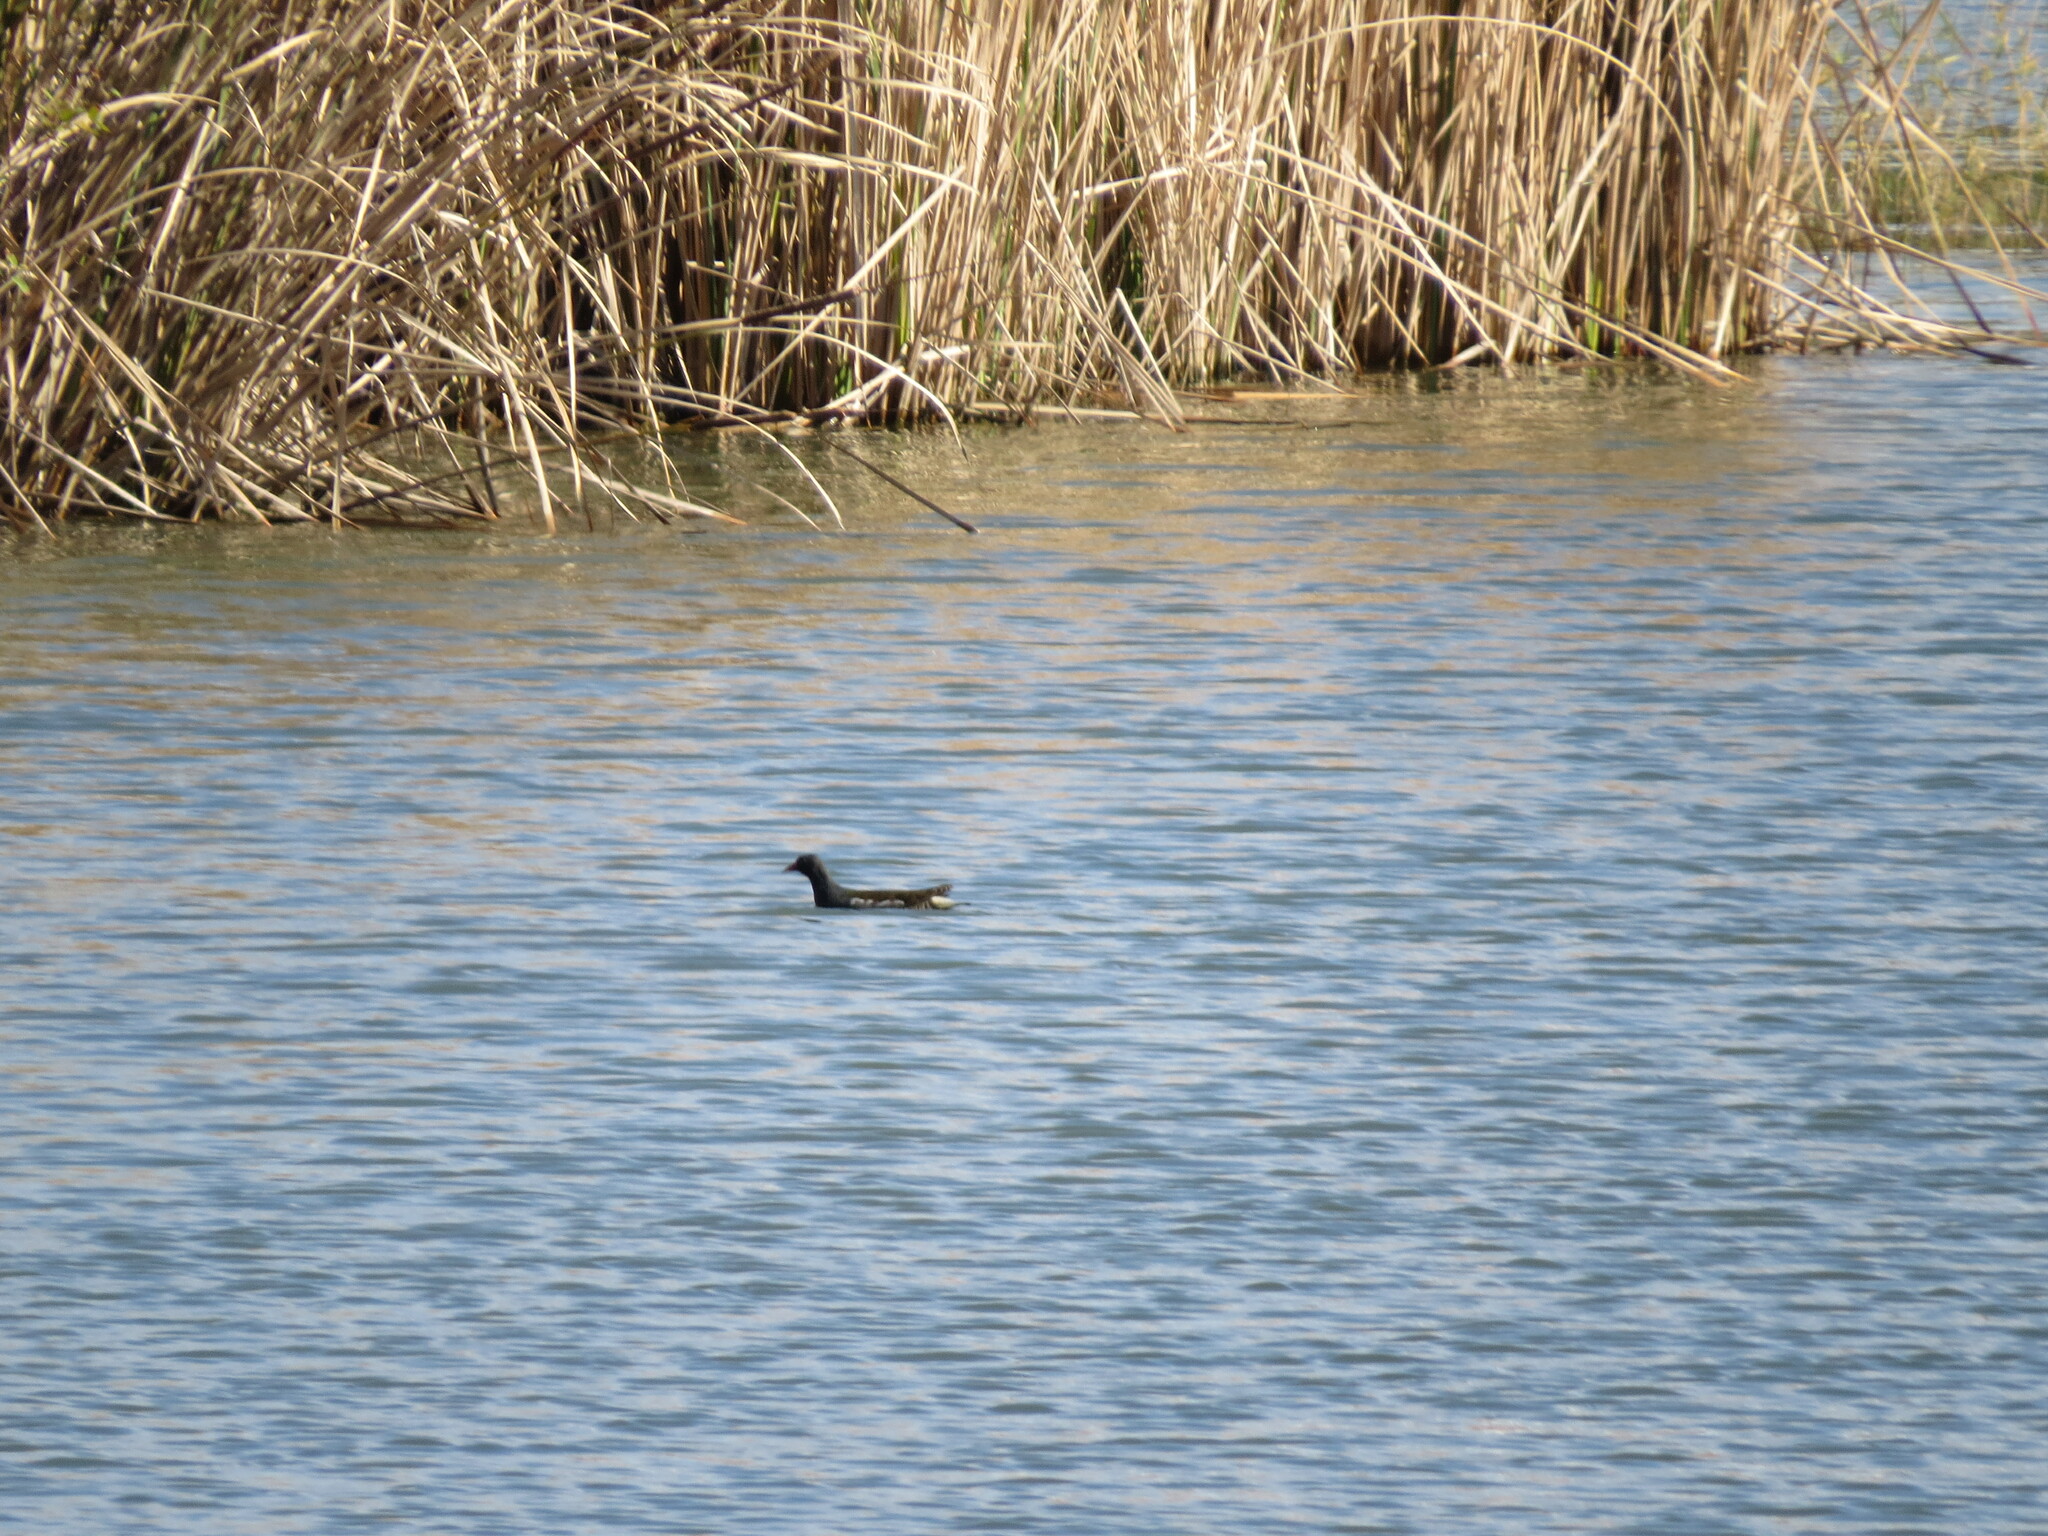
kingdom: Animalia
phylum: Chordata
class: Aves
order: Gruiformes
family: Rallidae
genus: Gallinula
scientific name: Gallinula chloropus
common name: Common moorhen
